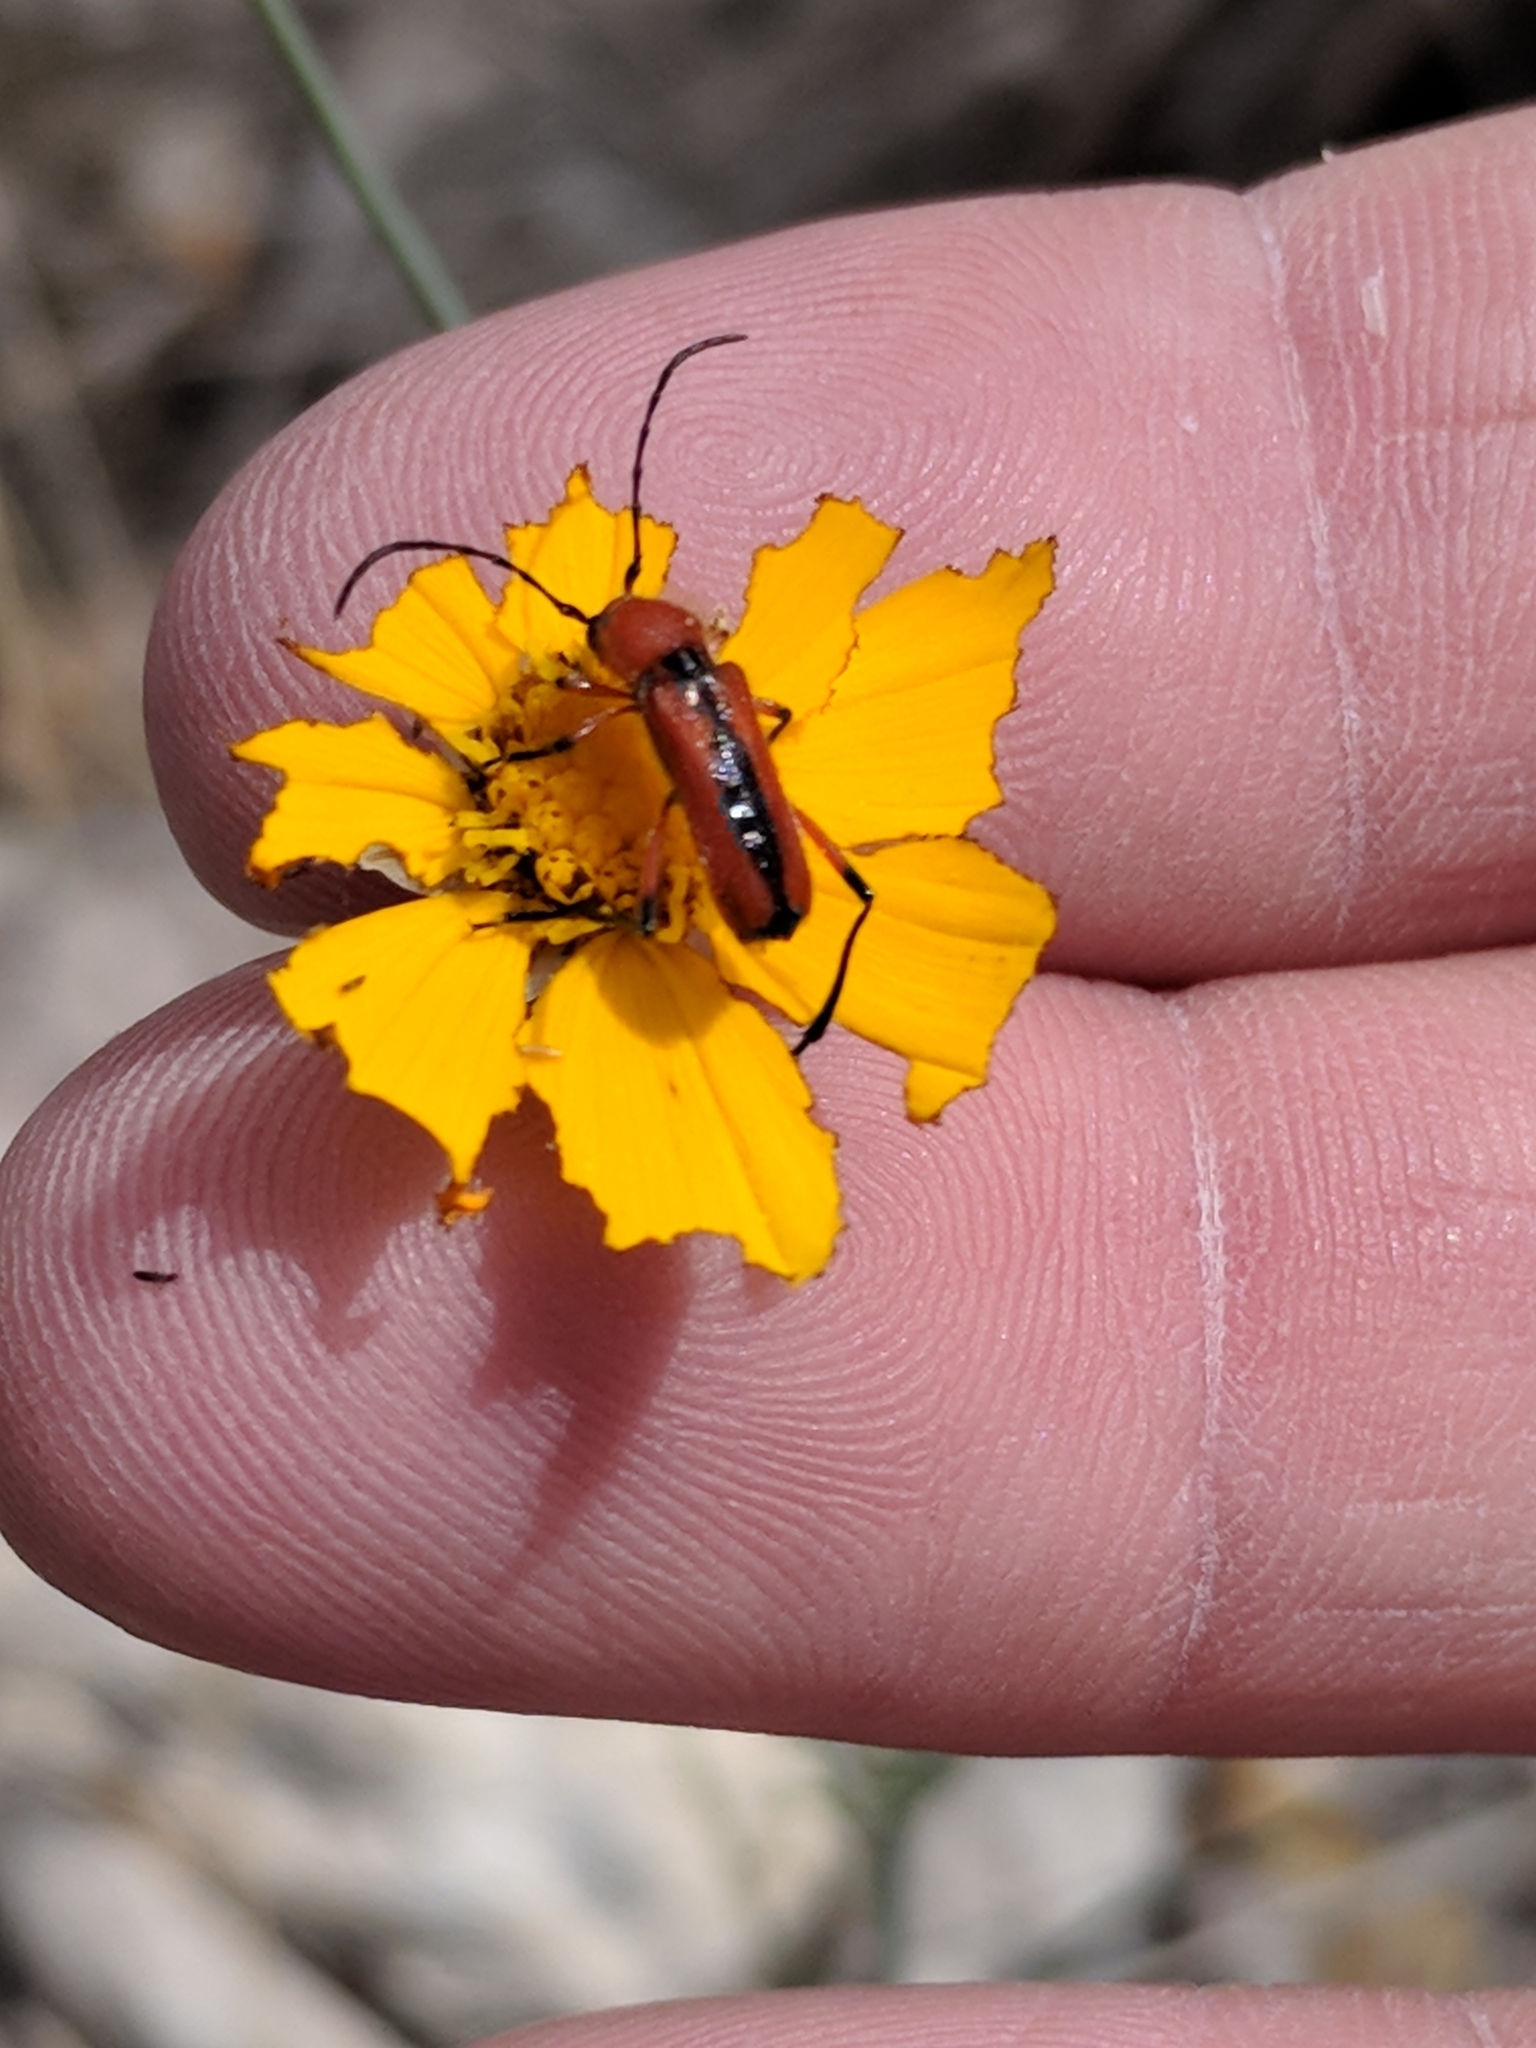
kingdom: Animalia
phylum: Arthropoda
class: Insecta
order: Coleoptera
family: Cerambycidae
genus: Batyle
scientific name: Batyle suturalis
